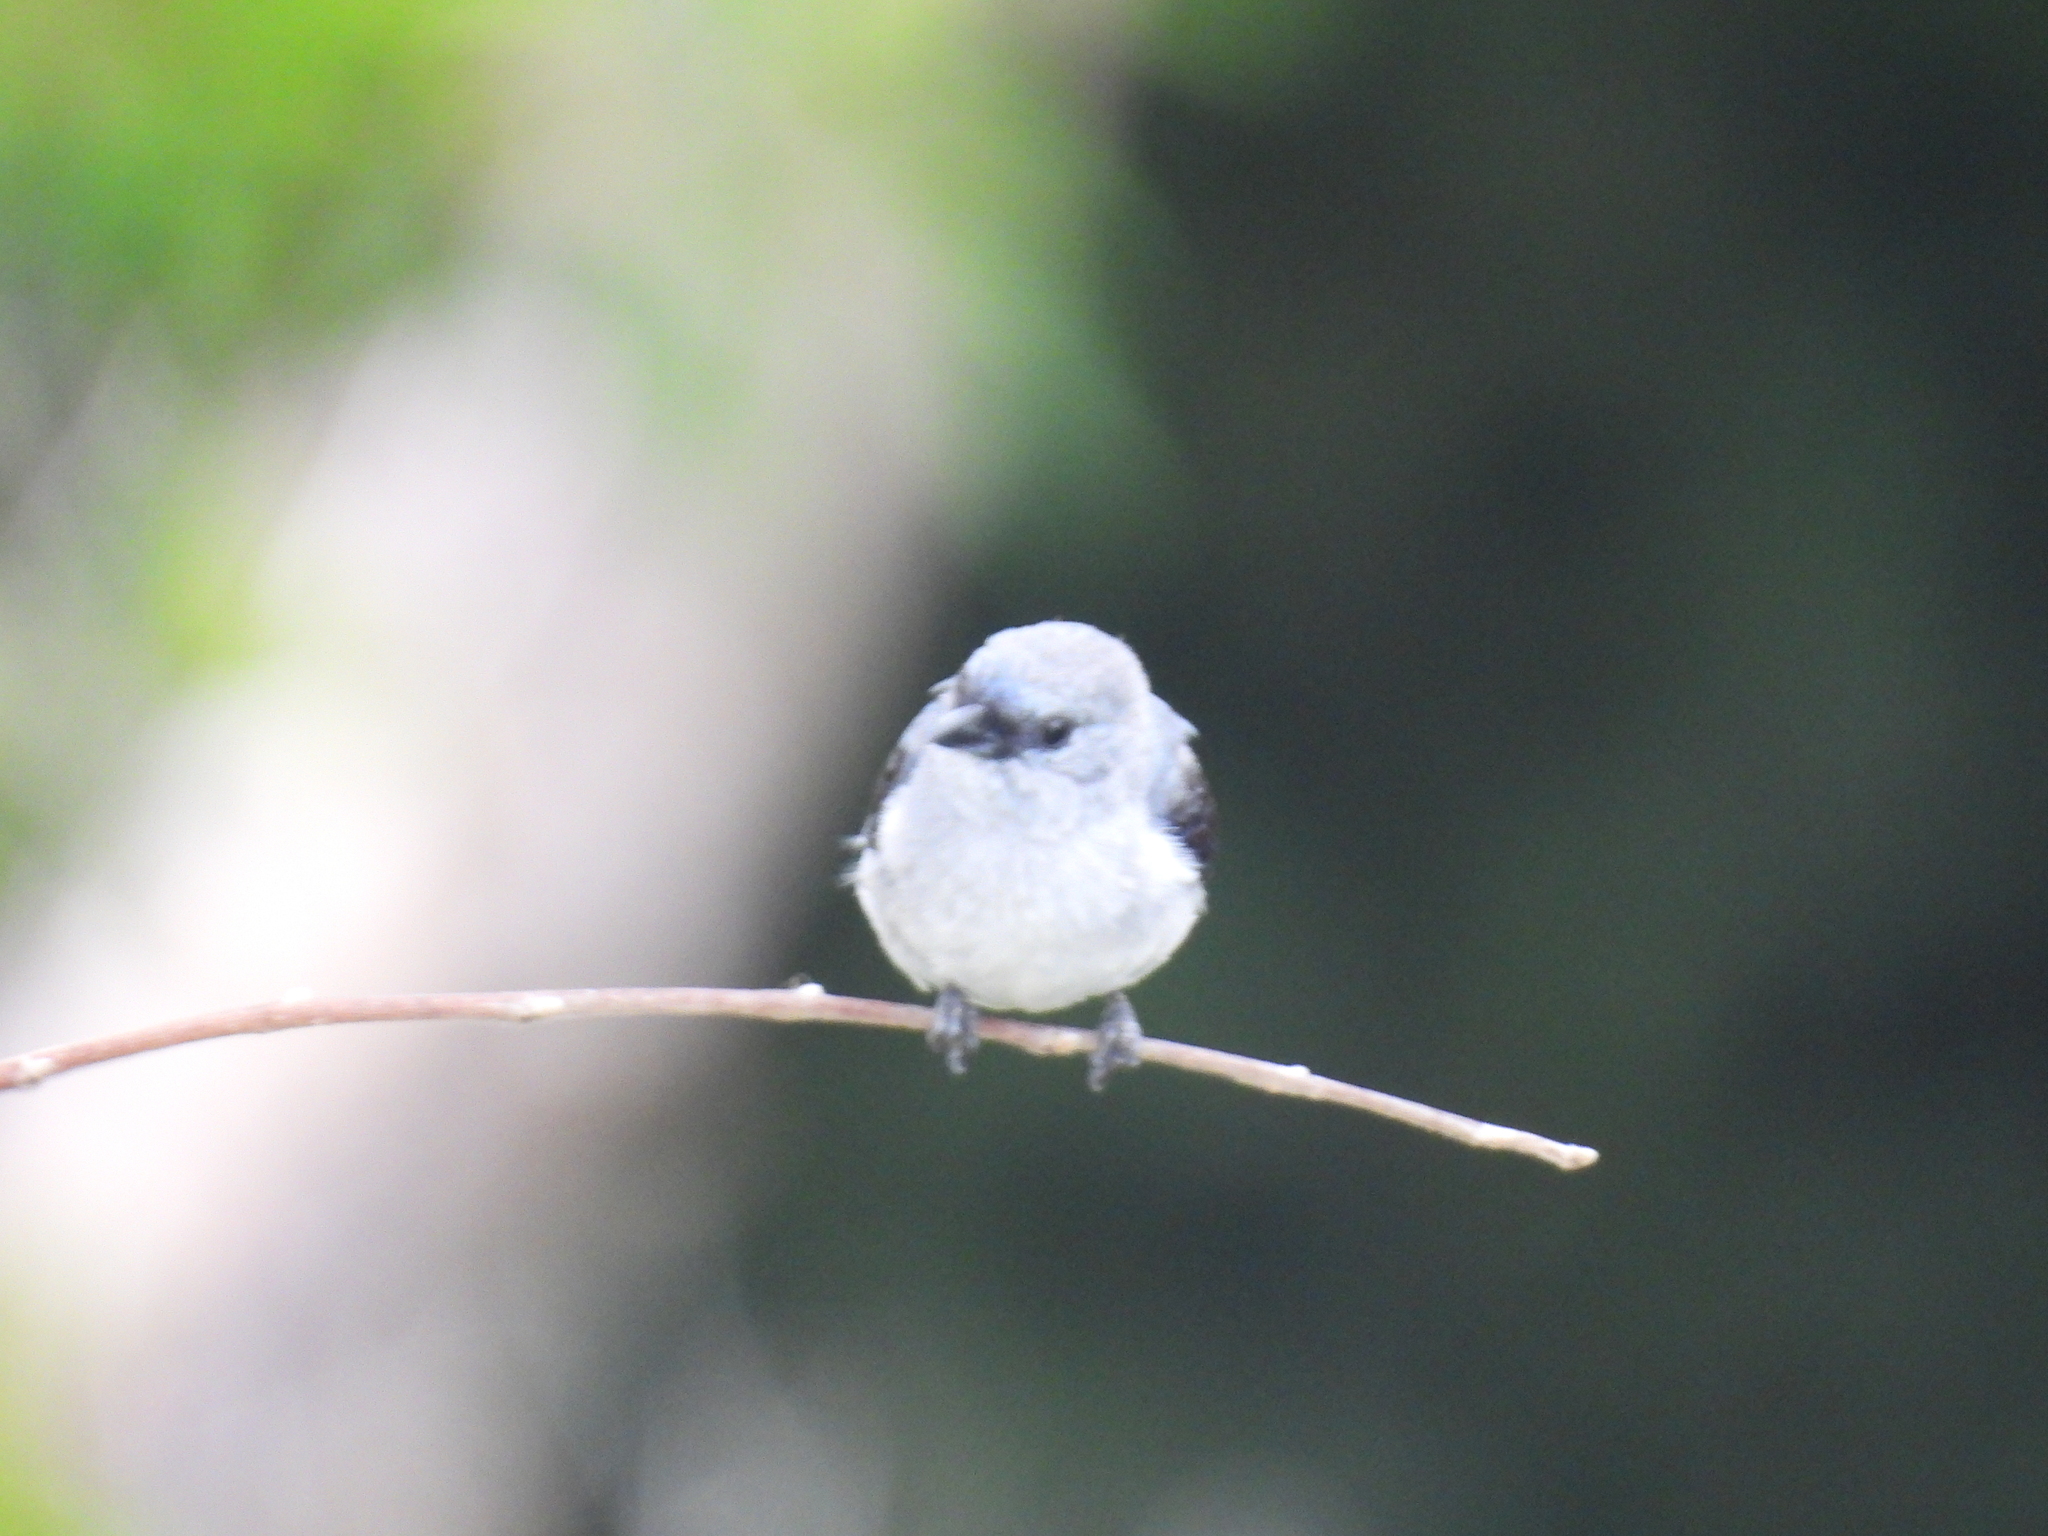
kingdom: Animalia
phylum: Chordata
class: Aves
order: Passeriformes
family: Thraupidae
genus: Tangara
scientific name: Tangara inornata
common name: Plain-colored tanager
